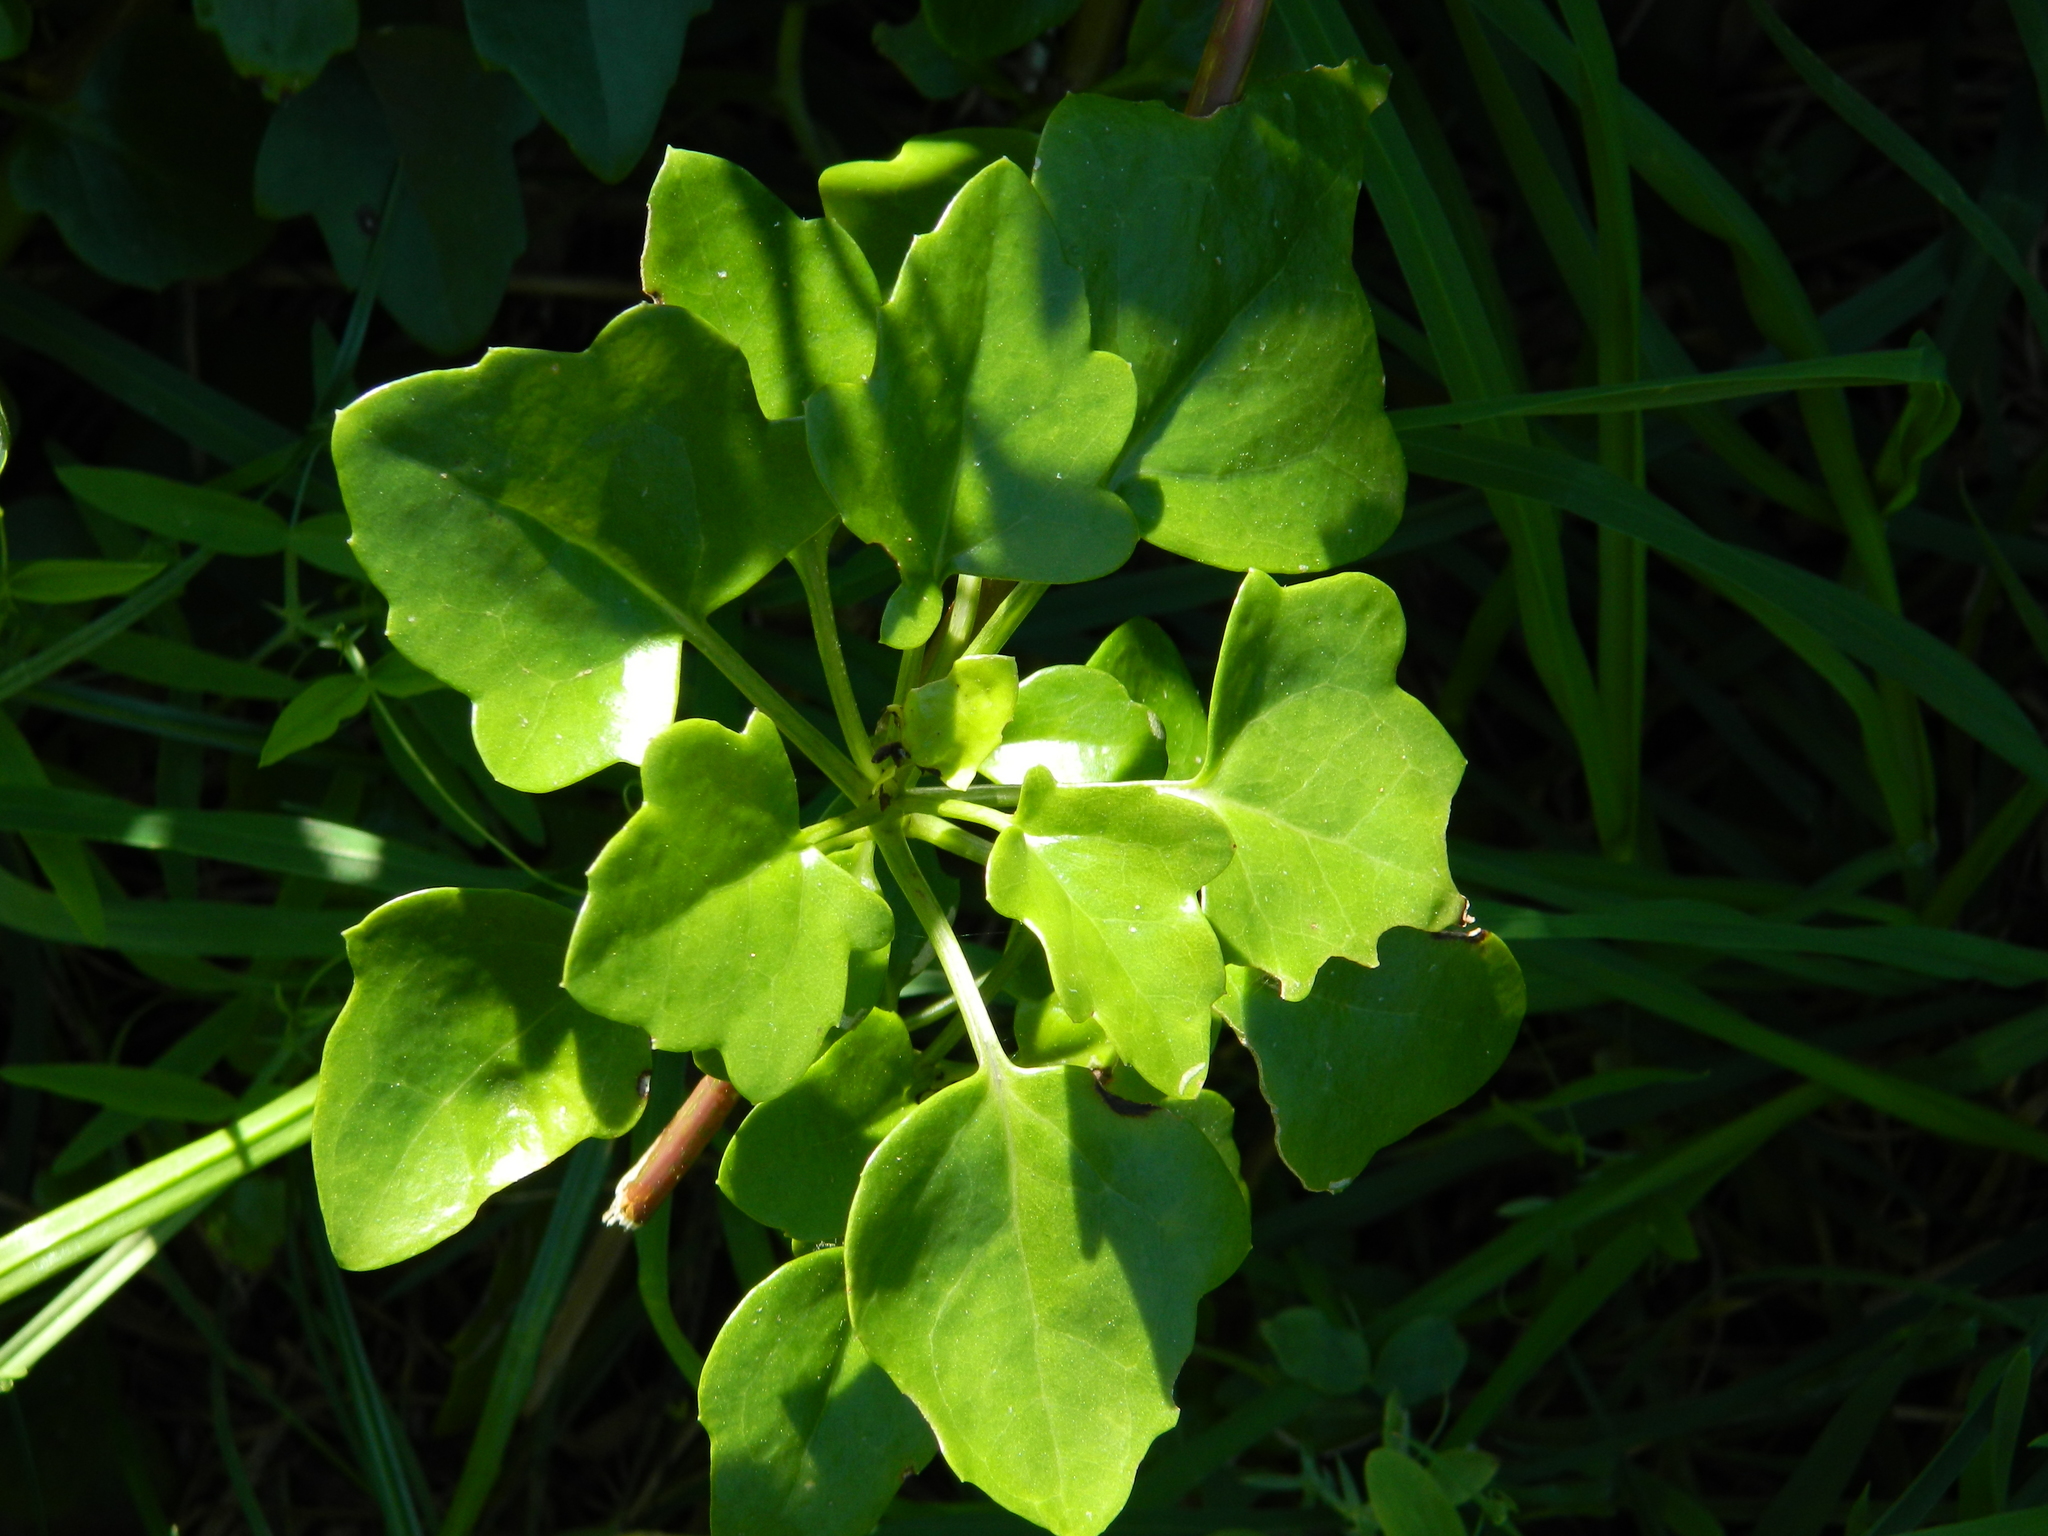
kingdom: Plantae
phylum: Tracheophyta
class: Magnoliopsida
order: Asterales
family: Asteraceae
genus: Senecio
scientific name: Senecio angulatus
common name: Climbing groundsel
